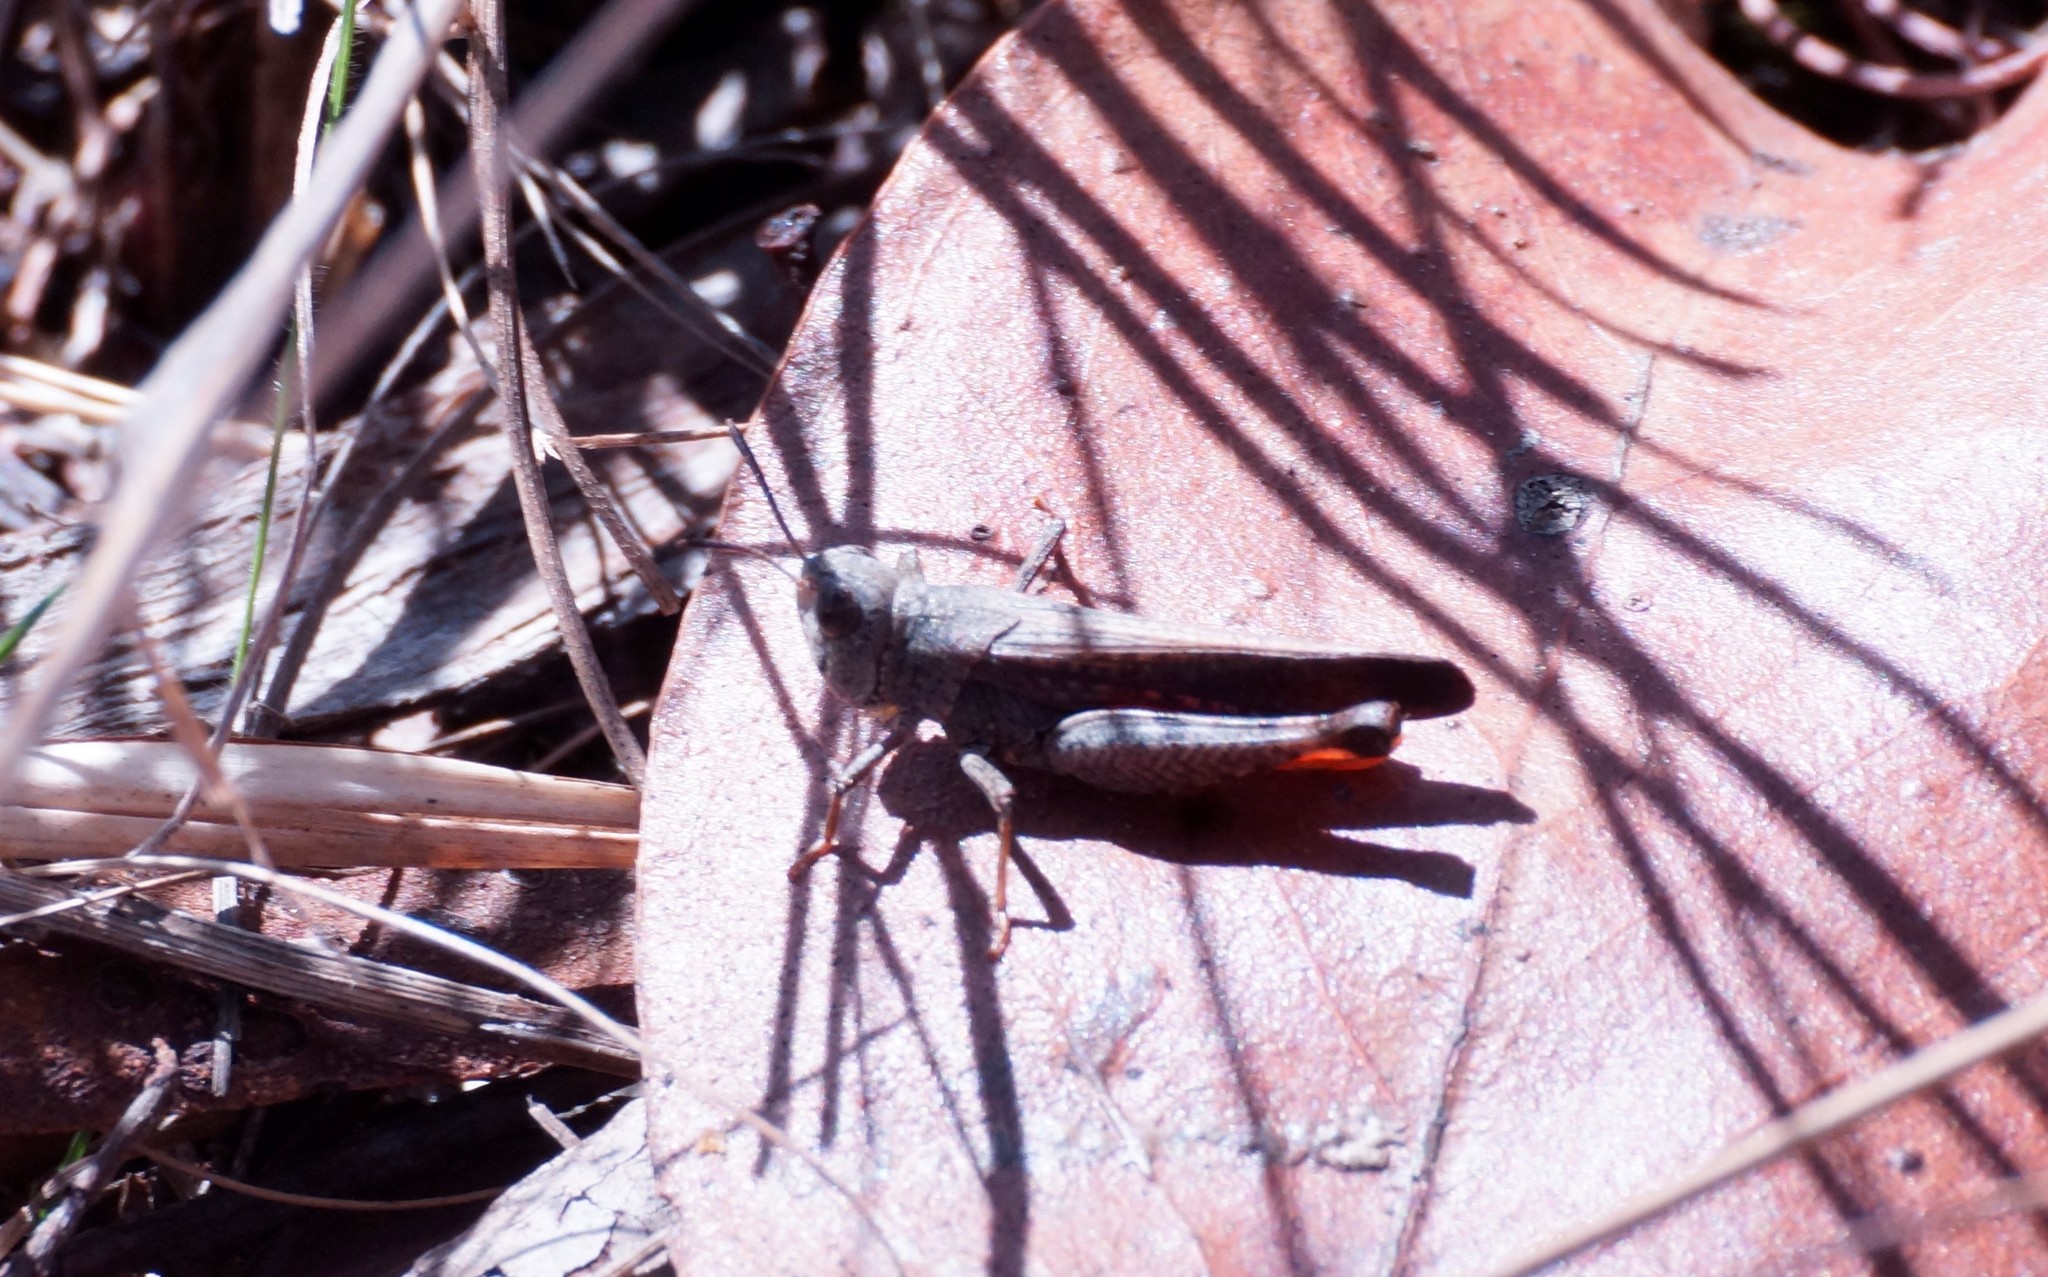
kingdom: Animalia
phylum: Arthropoda
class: Insecta
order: Orthoptera
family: Acrididae
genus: Exarna
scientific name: Exarna includens
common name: Red-legged exarna
